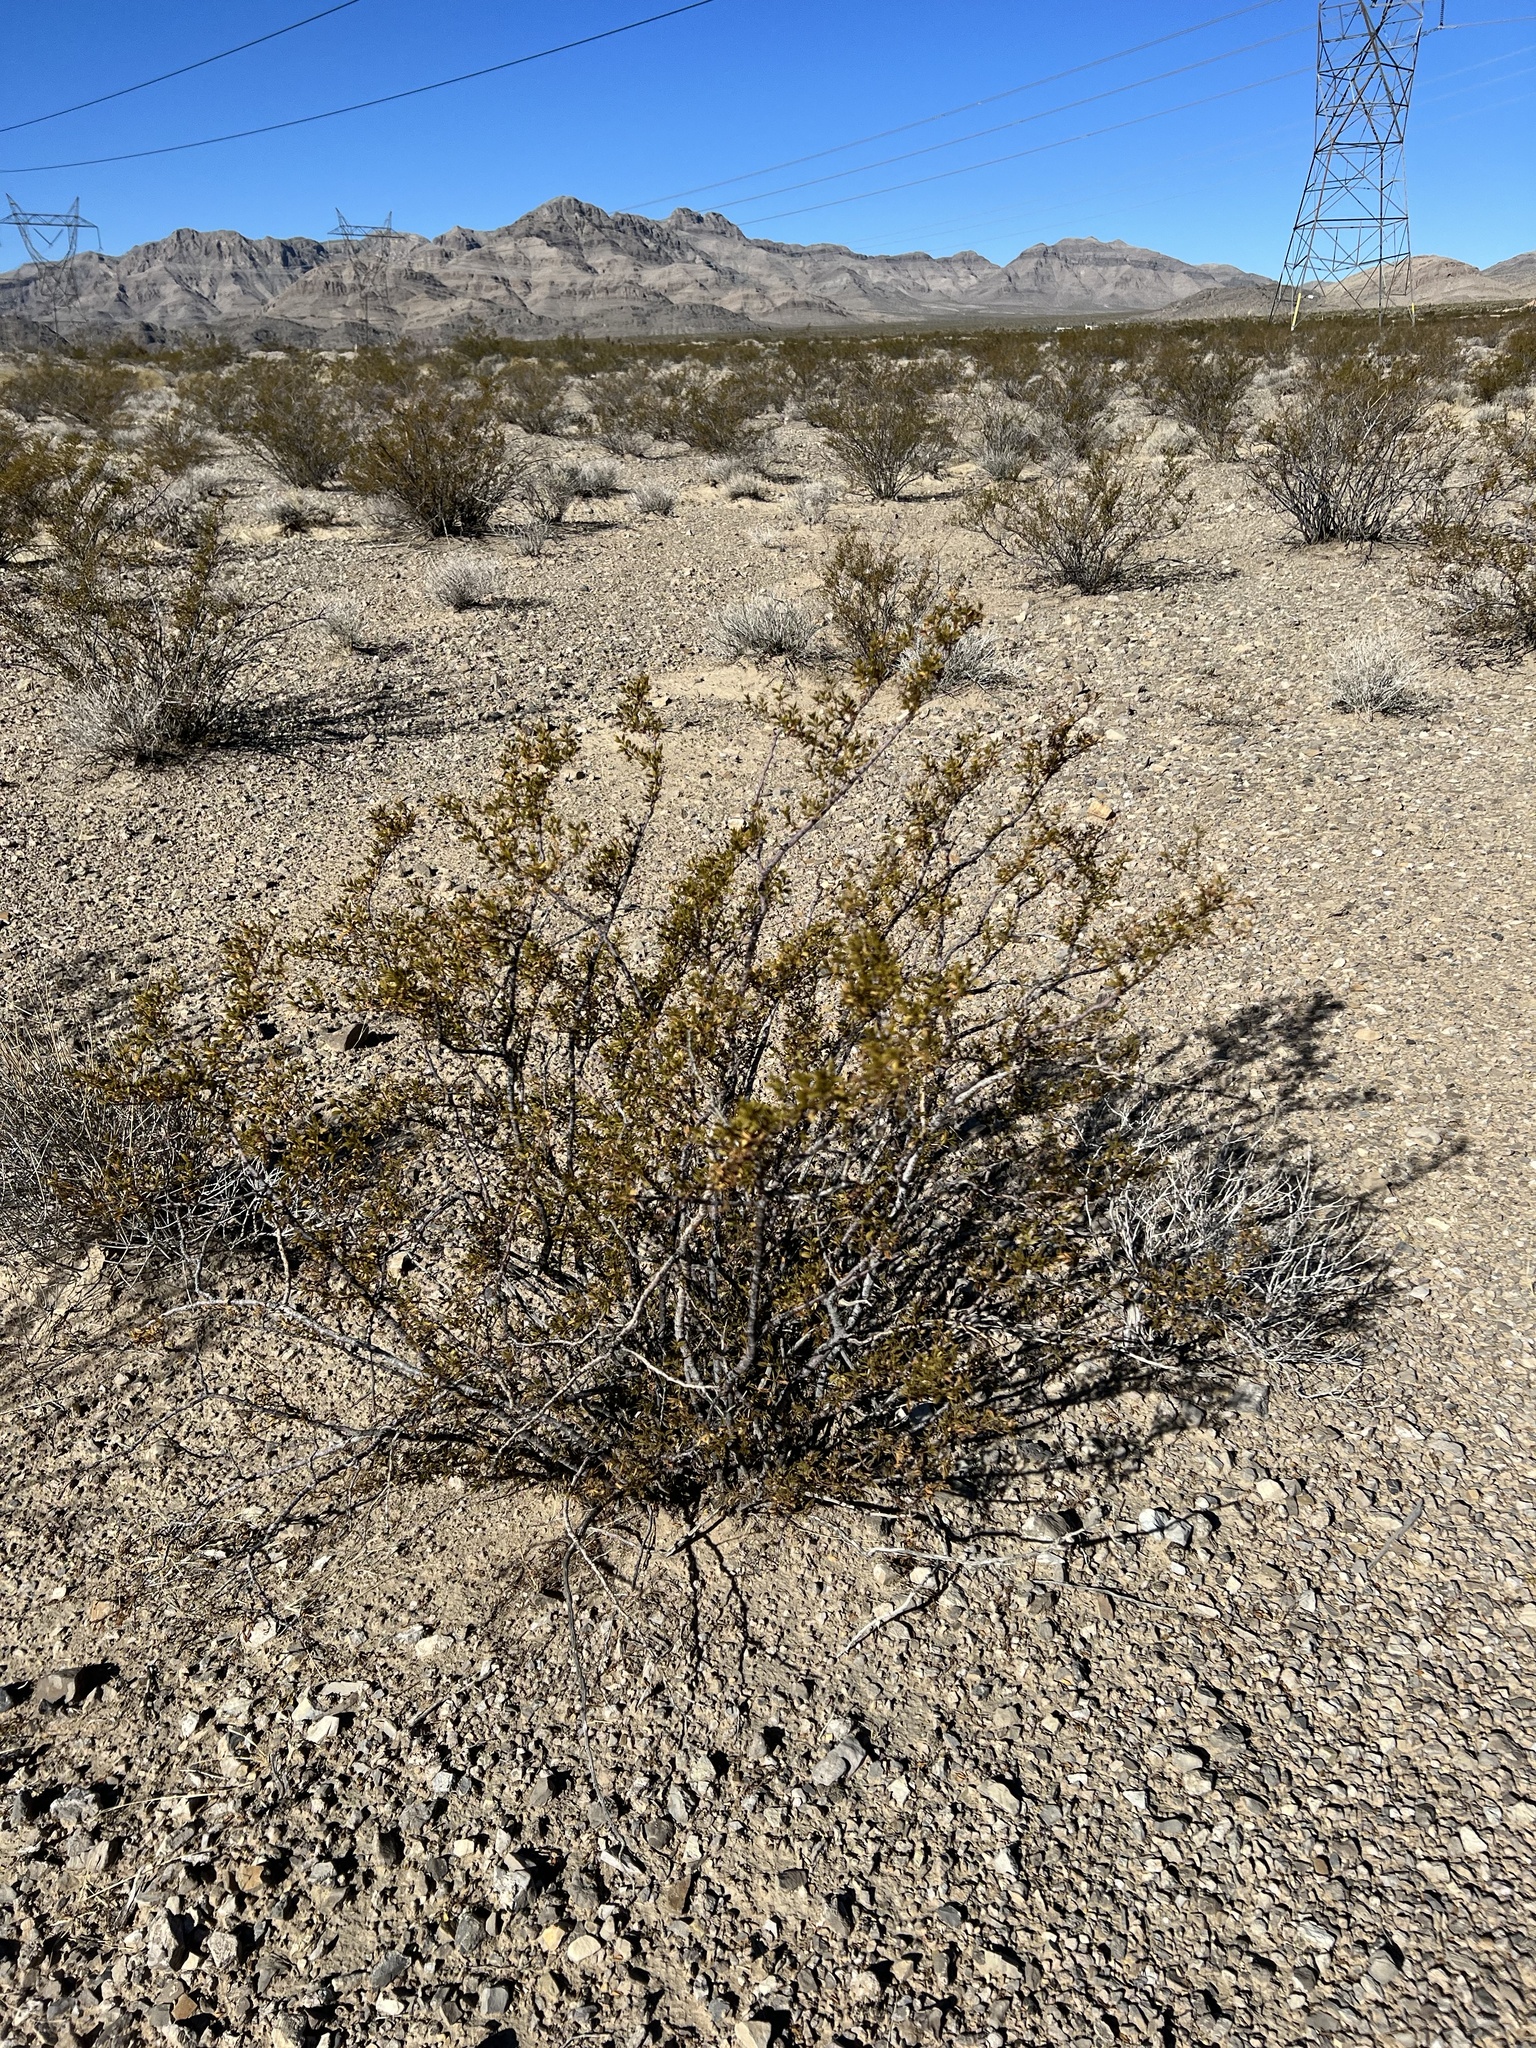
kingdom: Plantae
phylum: Tracheophyta
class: Magnoliopsida
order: Zygophyllales
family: Zygophyllaceae
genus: Larrea
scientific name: Larrea tridentata
